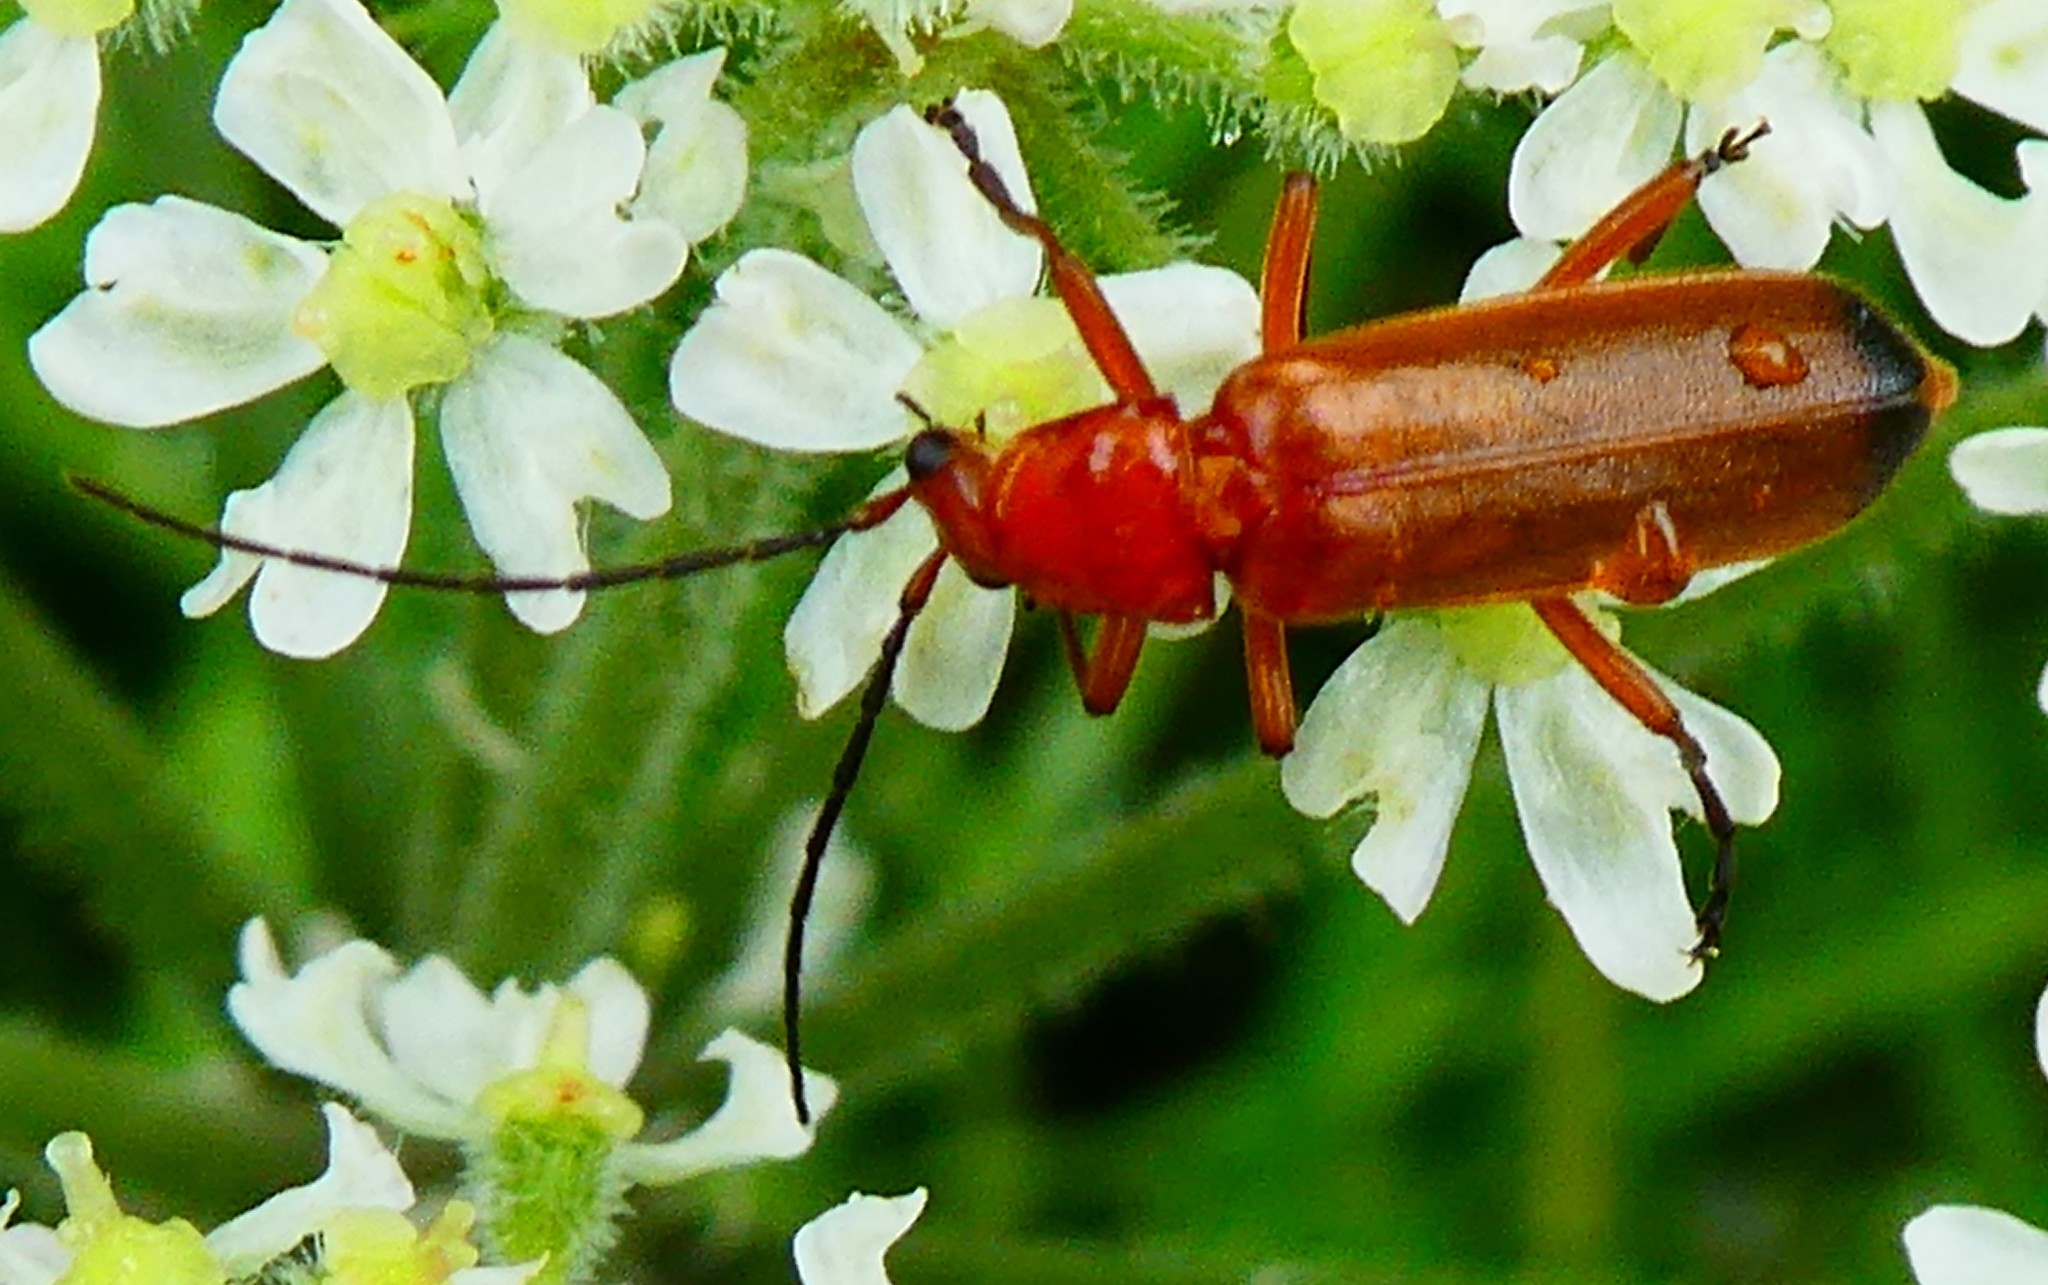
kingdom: Animalia
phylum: Arthropoda
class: Insecta
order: Coleoptera
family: Cantharidae
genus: Rhagonycha
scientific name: Rhagonycha fulva
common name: Common red soldier beetle
